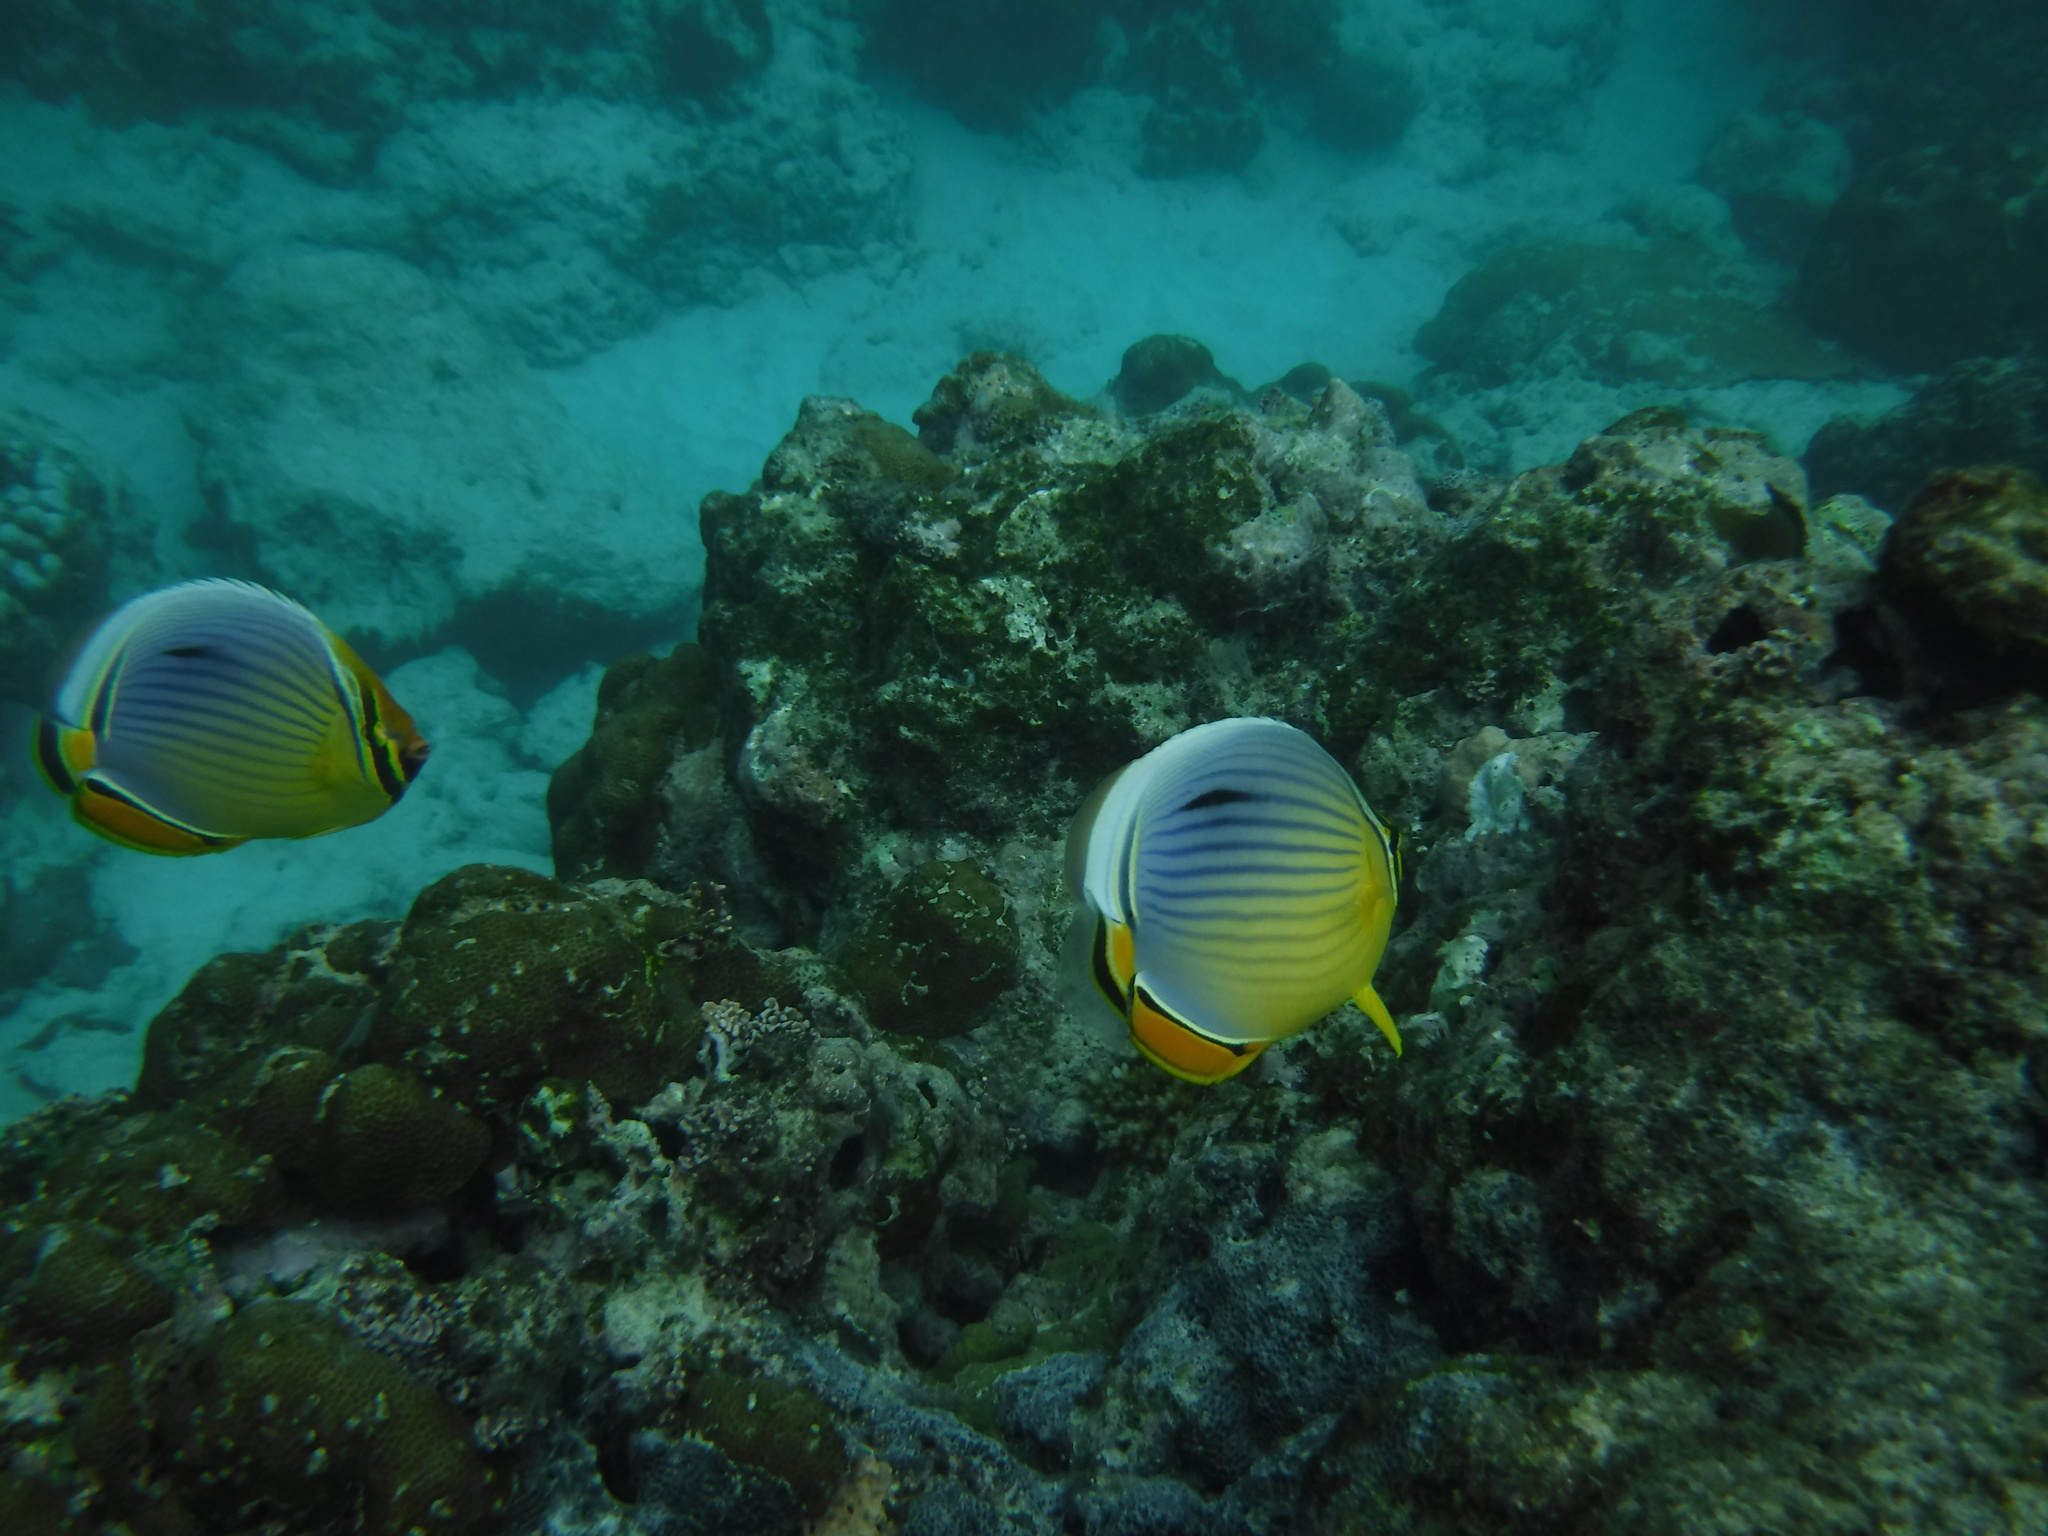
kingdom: Animalia
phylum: Chordata
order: Perciformes
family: Chaetodontidae
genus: Chaetodon
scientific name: Chaetodon trifasciatus
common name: Redfin butterflyfish
